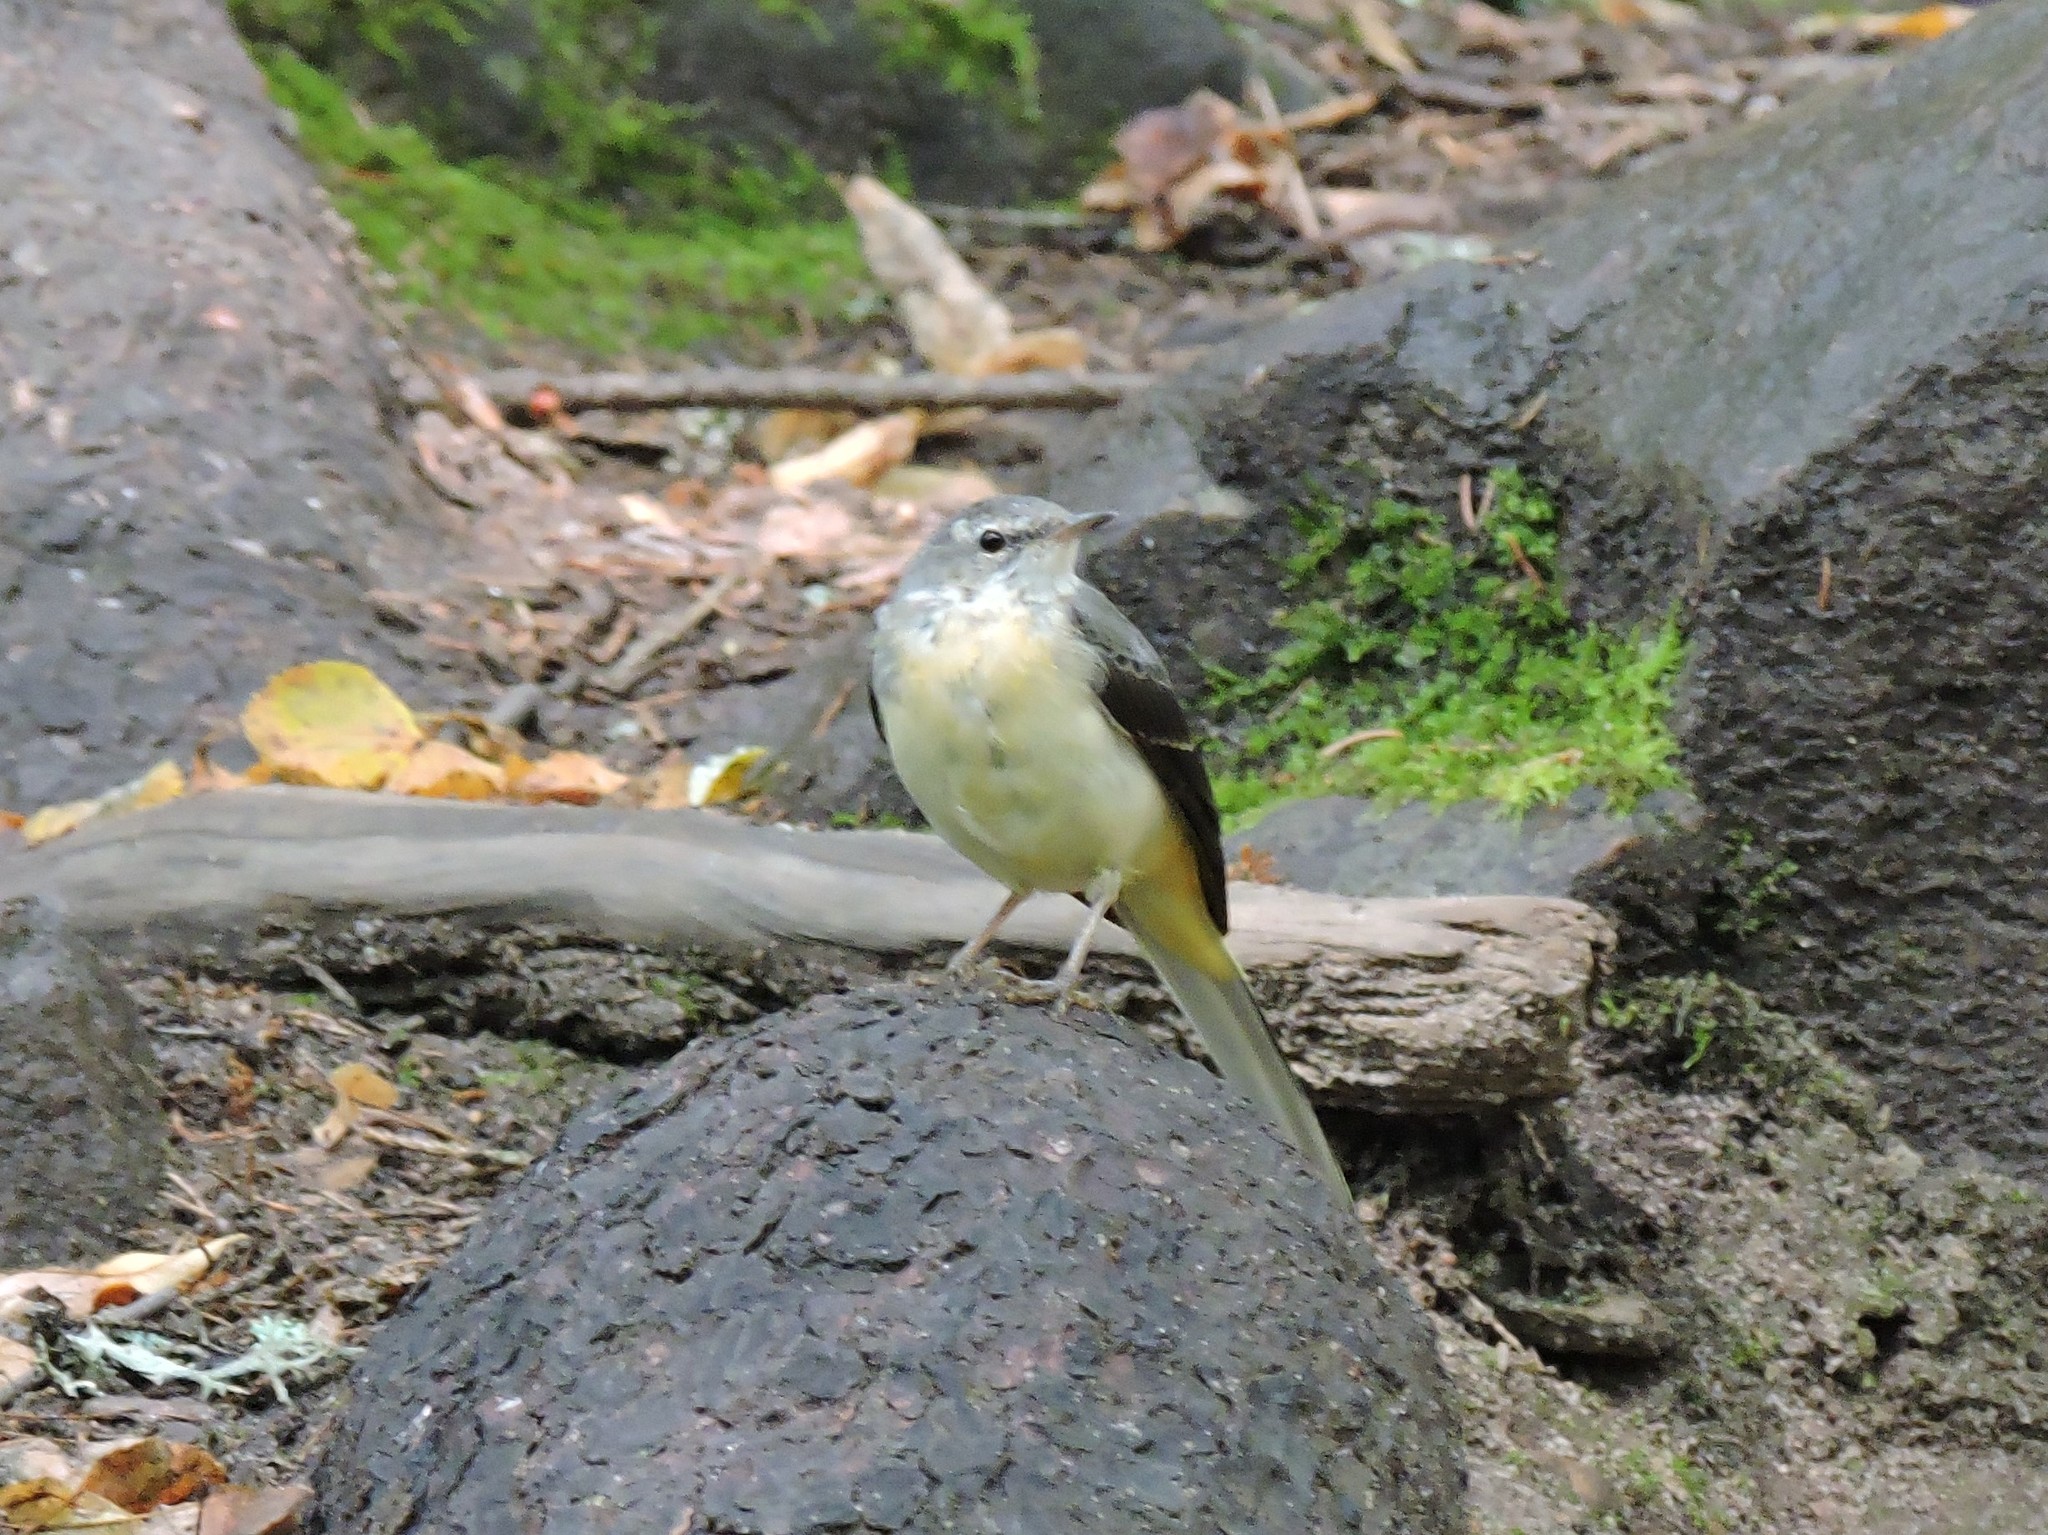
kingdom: Animalia
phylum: Chordata
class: Aves
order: Passeriformes
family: Motacillidae
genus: Motacilla
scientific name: Motacilla cinerea
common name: Grey wagtail
